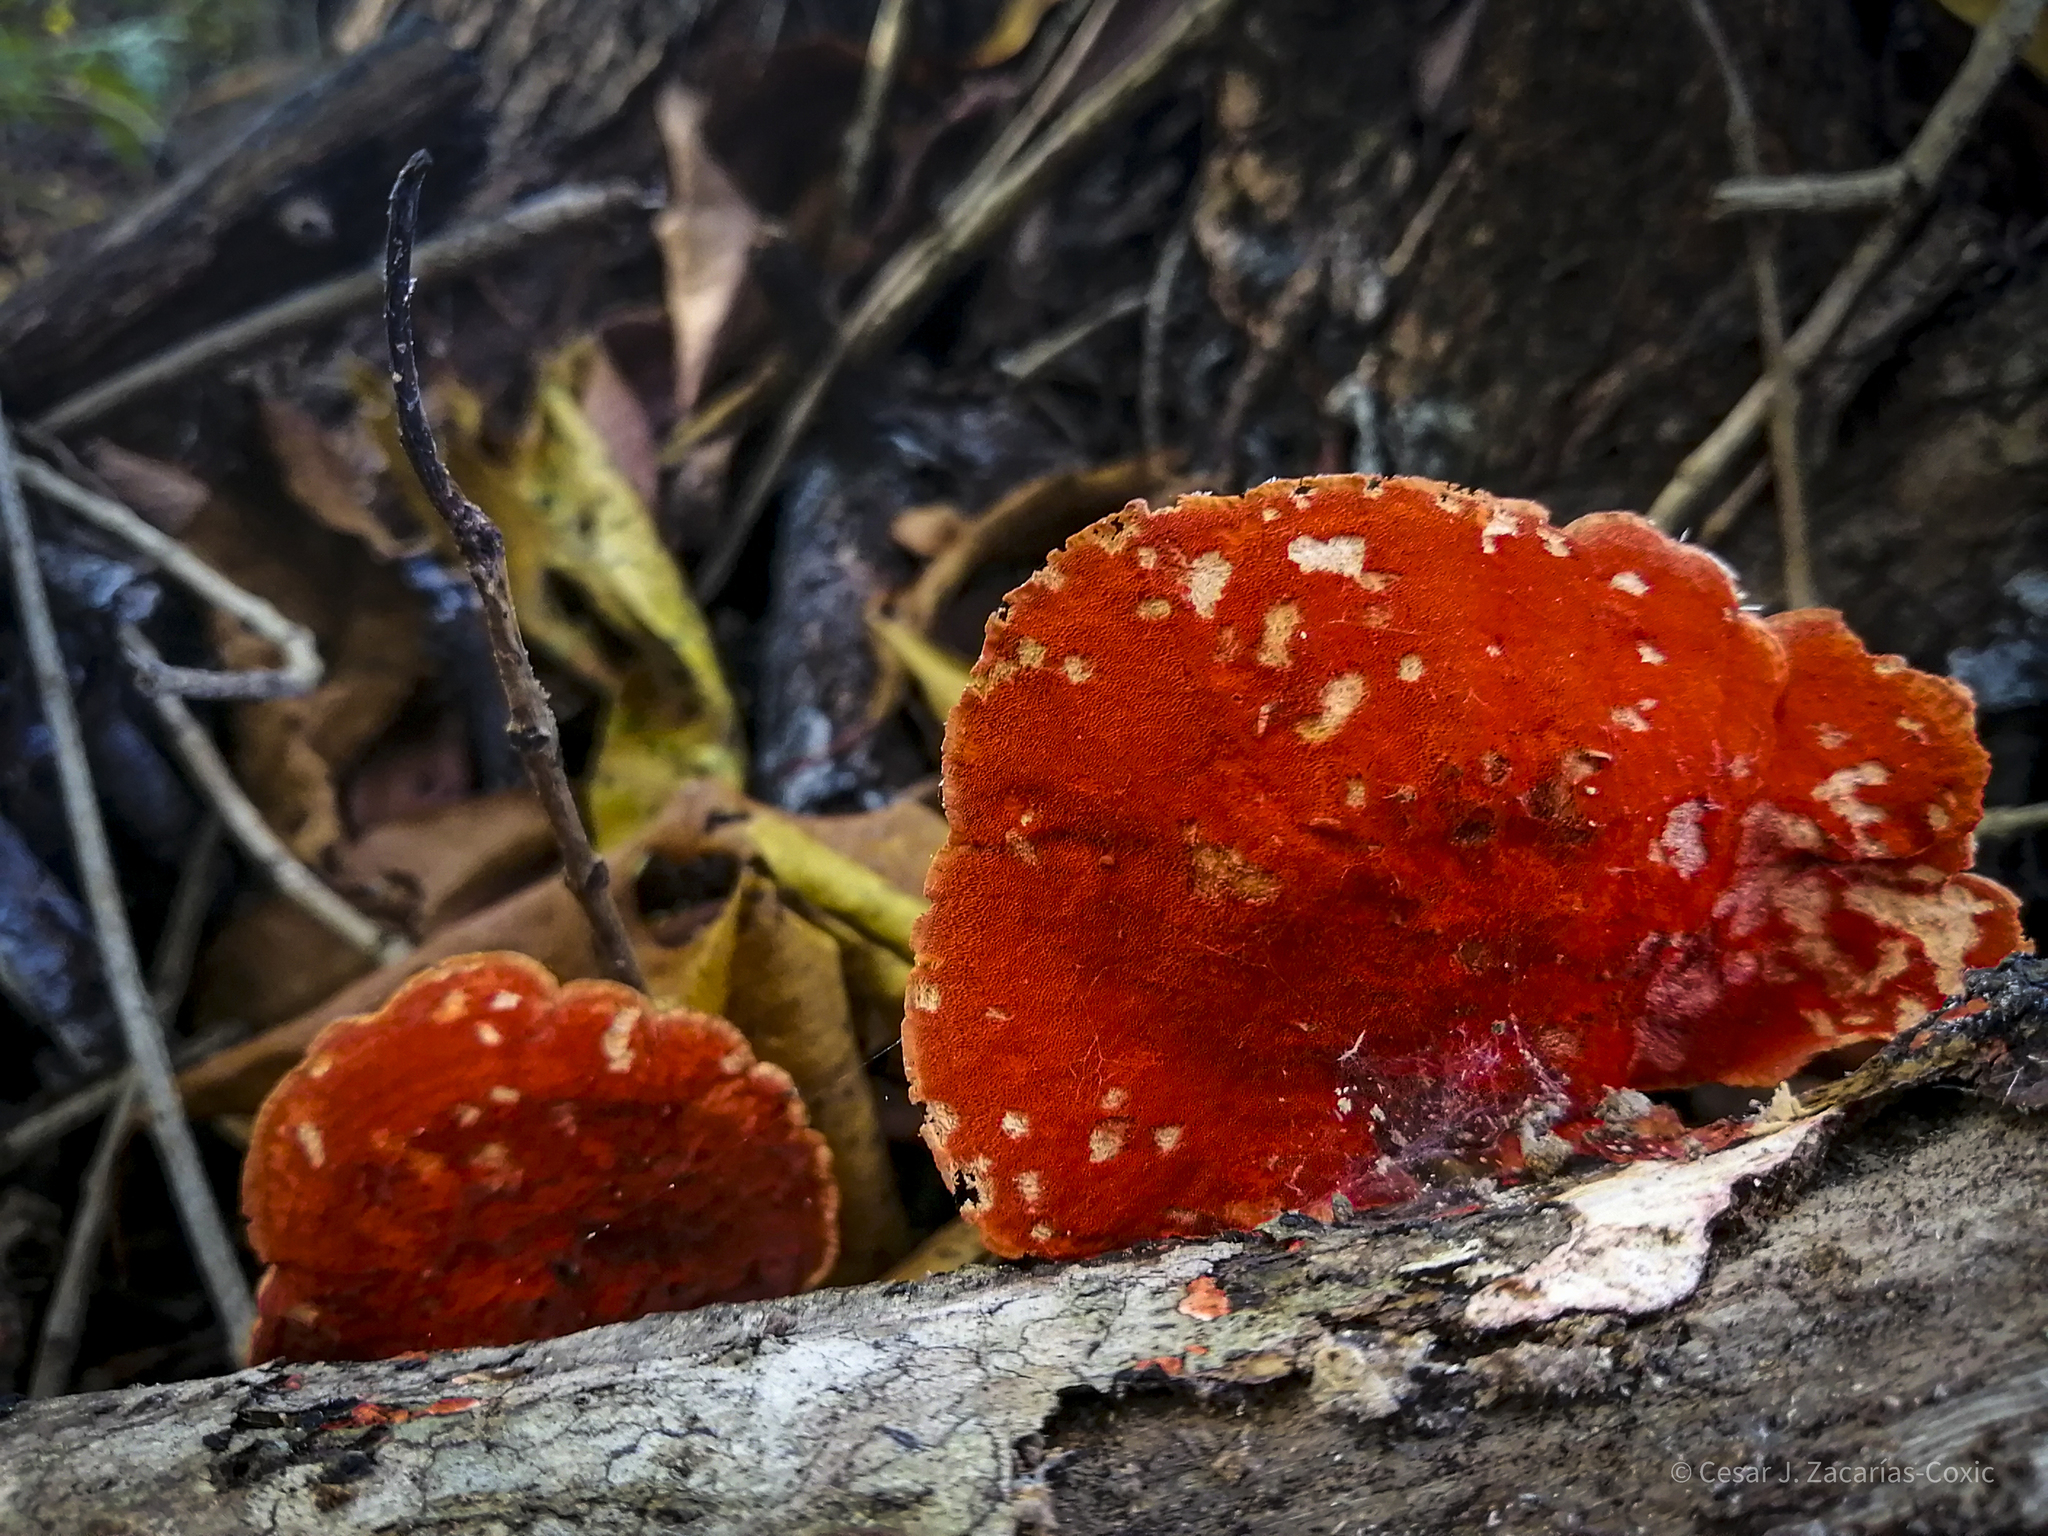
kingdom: Fungi
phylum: Basidiomycota
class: Agaricomycetes
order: Polyporales
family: Polyporaceae
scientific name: Polyporaceae
